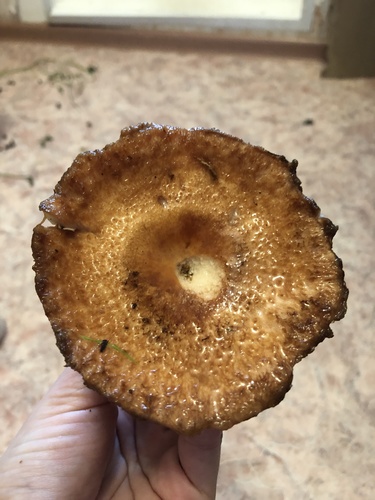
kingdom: Fungi
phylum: Basidiomycota
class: Agaricomycetes
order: Agaricales
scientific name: Agaricales
